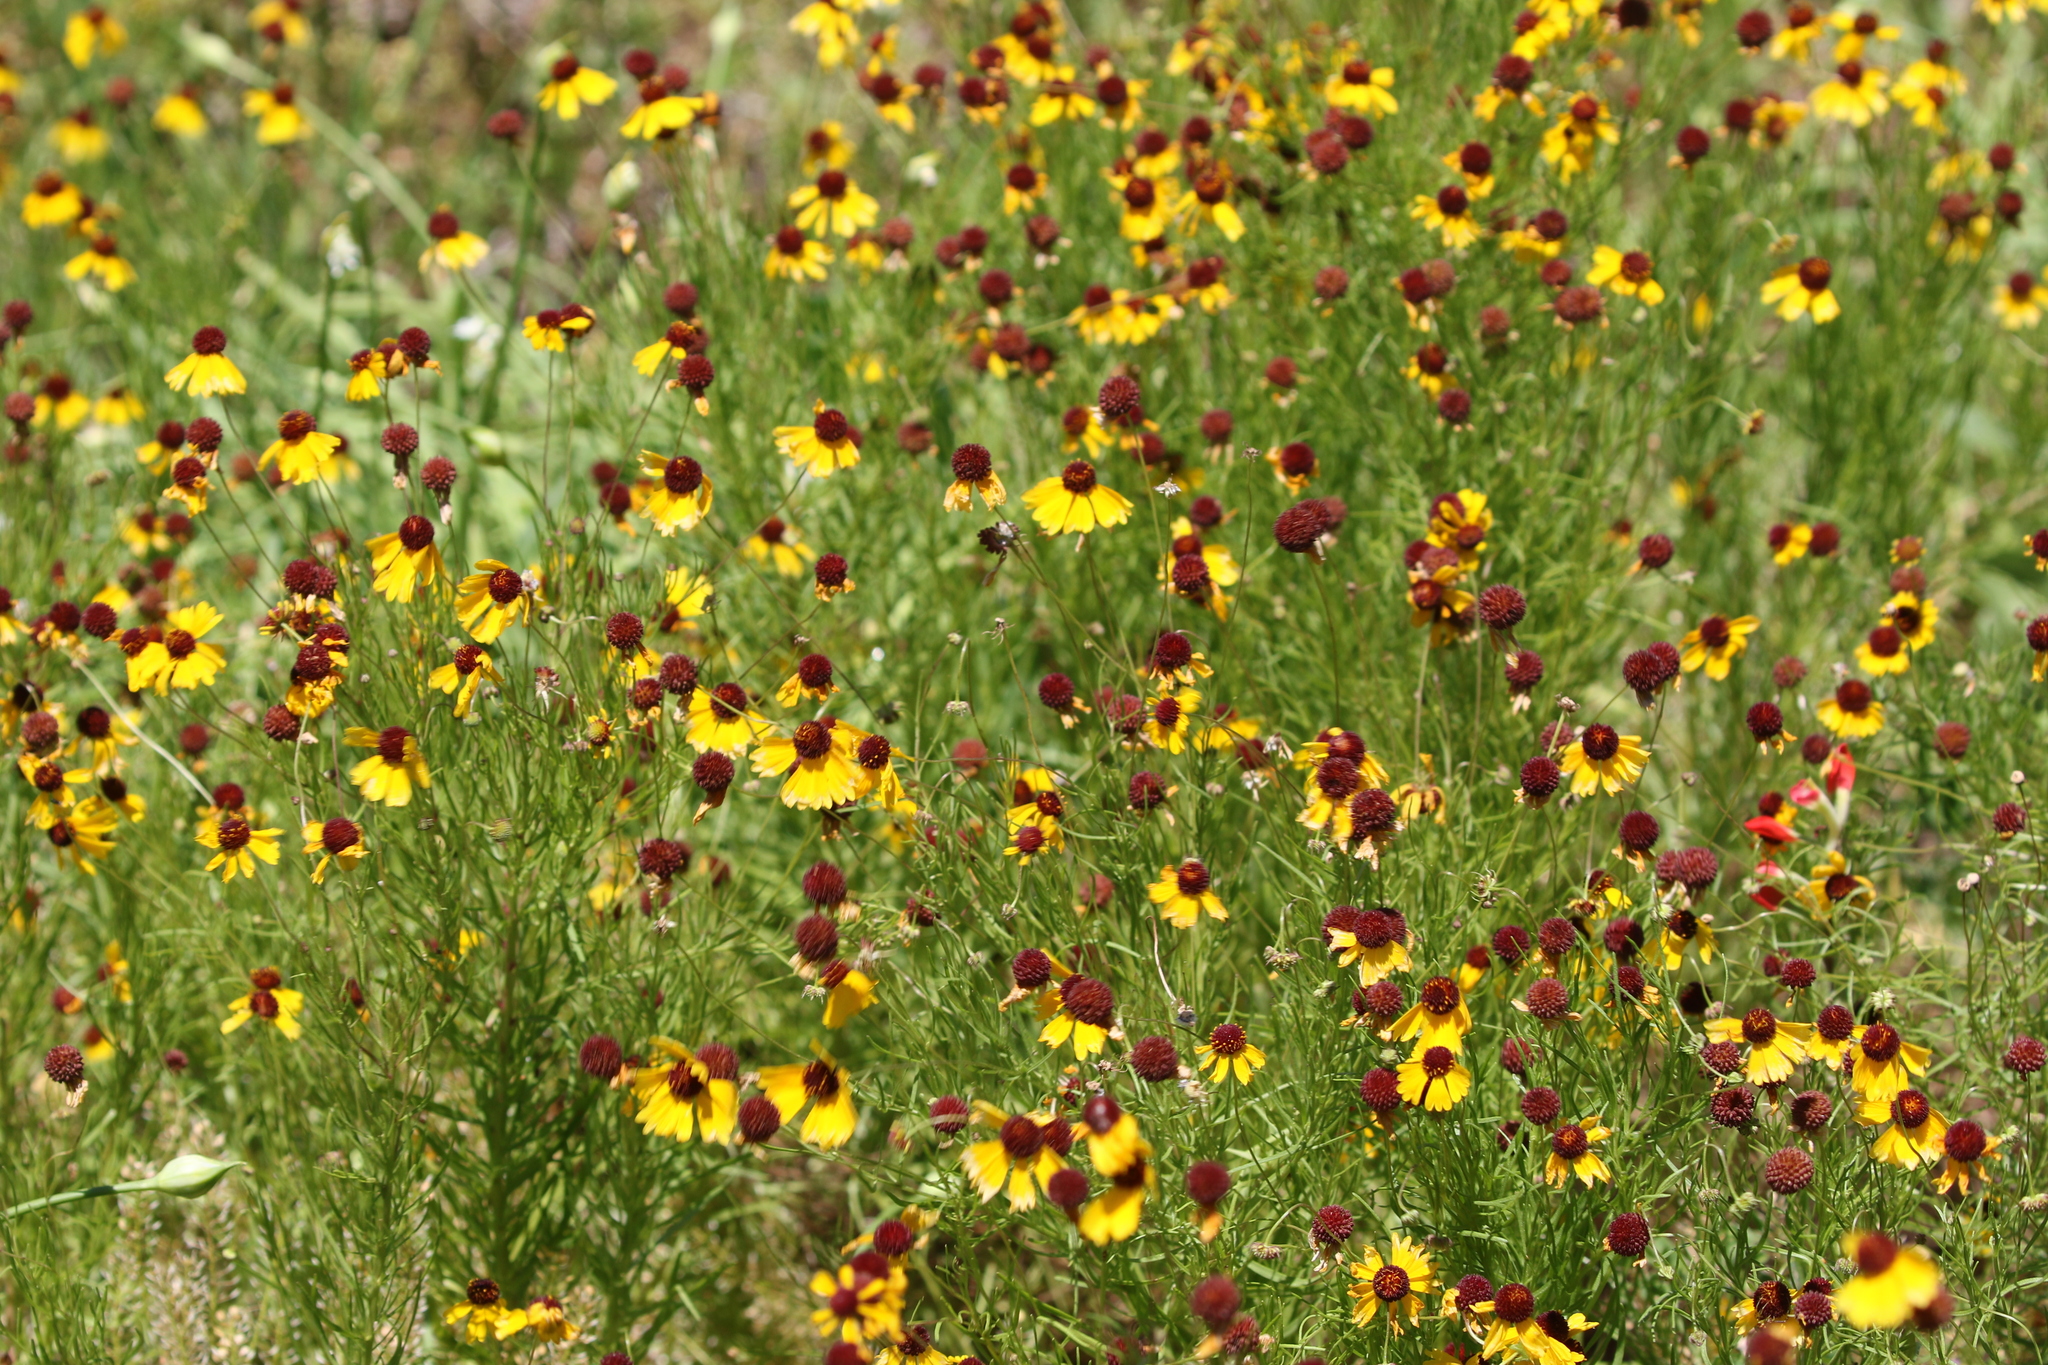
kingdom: Plantae
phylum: Tracheophyta
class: Magnoliopsida
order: Asterales
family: Asteraceae
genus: Helenium
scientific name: Helenium amarum
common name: Bitter sneezeweed
